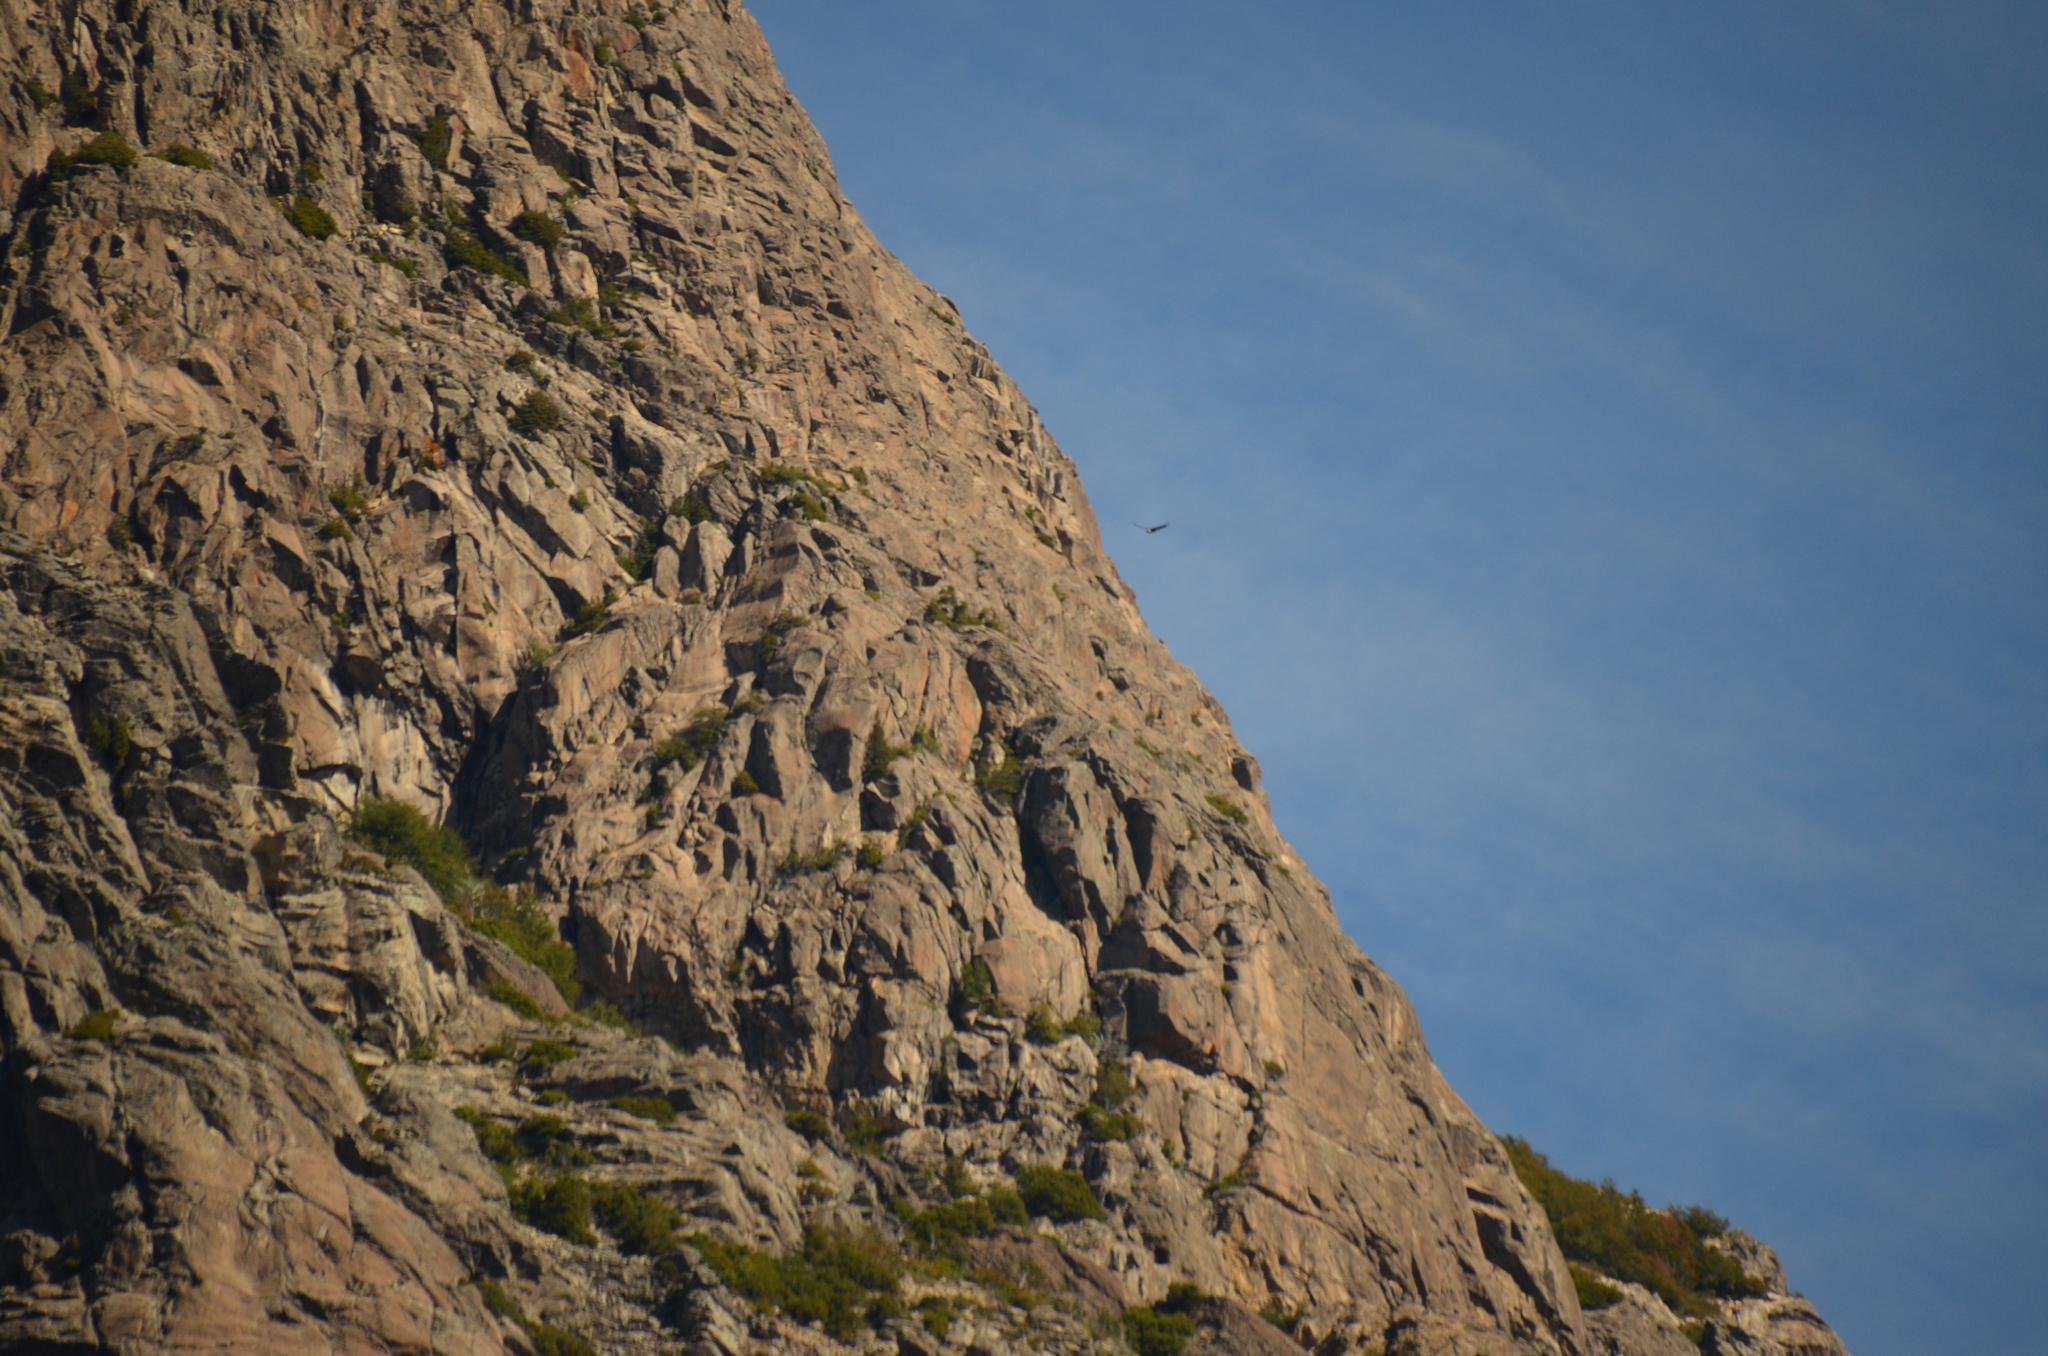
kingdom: Animalia
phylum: Chordata
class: Aves
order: Accipitriformes
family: Cathartidae
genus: Vultur
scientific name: Vultur gryphus
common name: Andean condor
